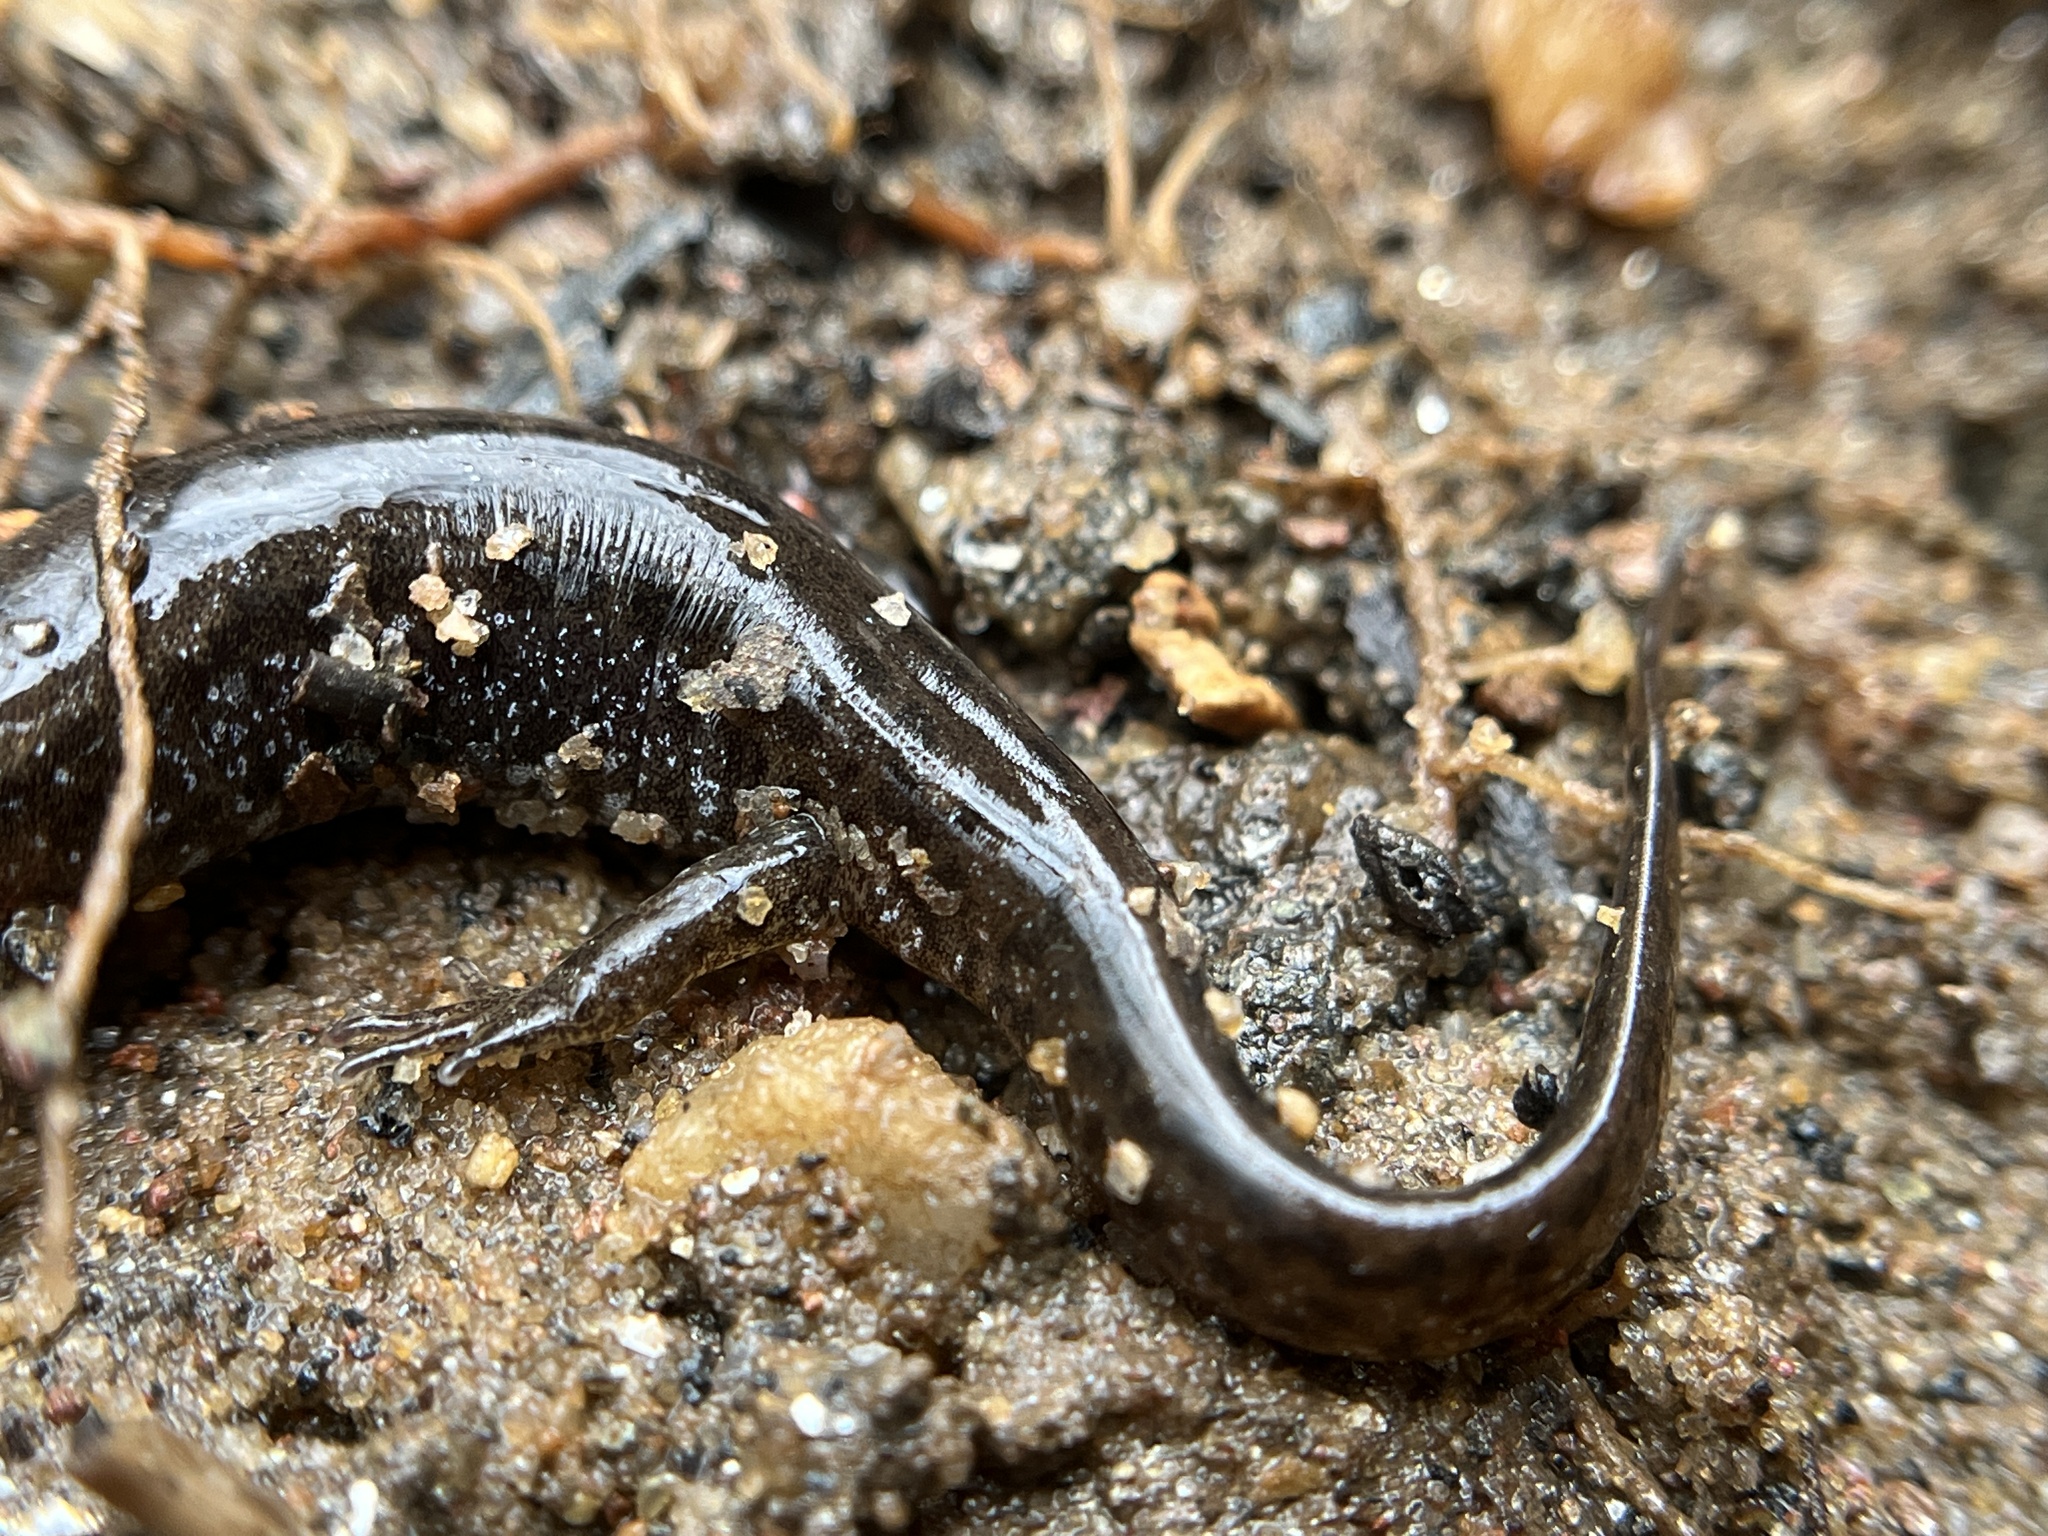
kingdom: Animalia
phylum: Chordata
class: Amphibia
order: Caudata
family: Plethodontidae
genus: Desmognathus
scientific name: Desmognathus planiceps
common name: Flat-headed salamander
